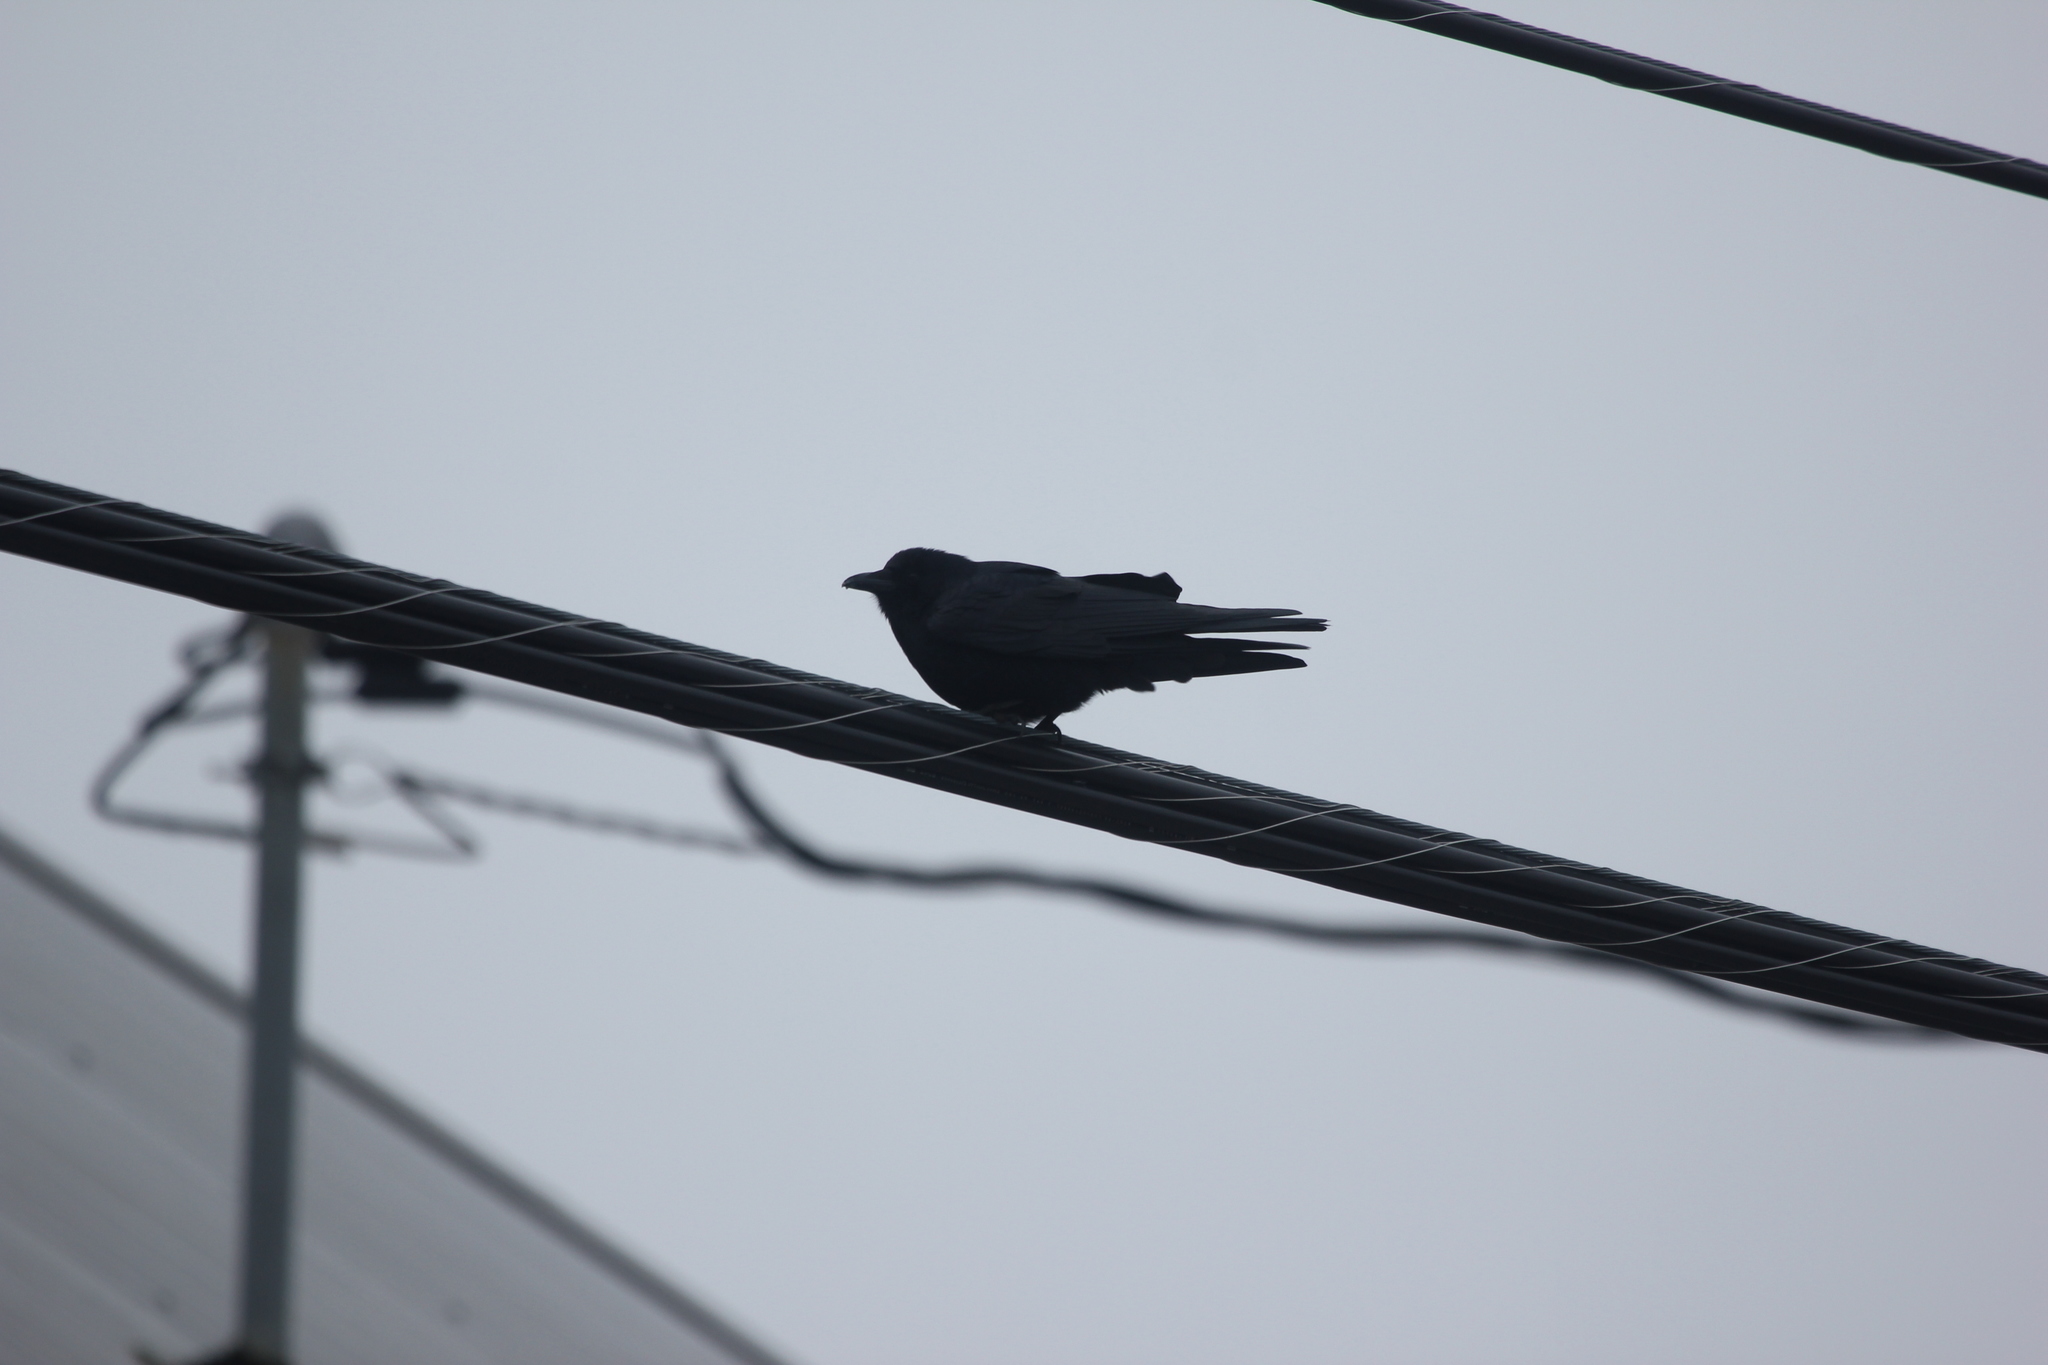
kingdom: Animalia
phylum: Chordata
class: Aves
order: Passeriformes
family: Corvidae
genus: Corvus
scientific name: Corvus ossifragus
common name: Fish crow
